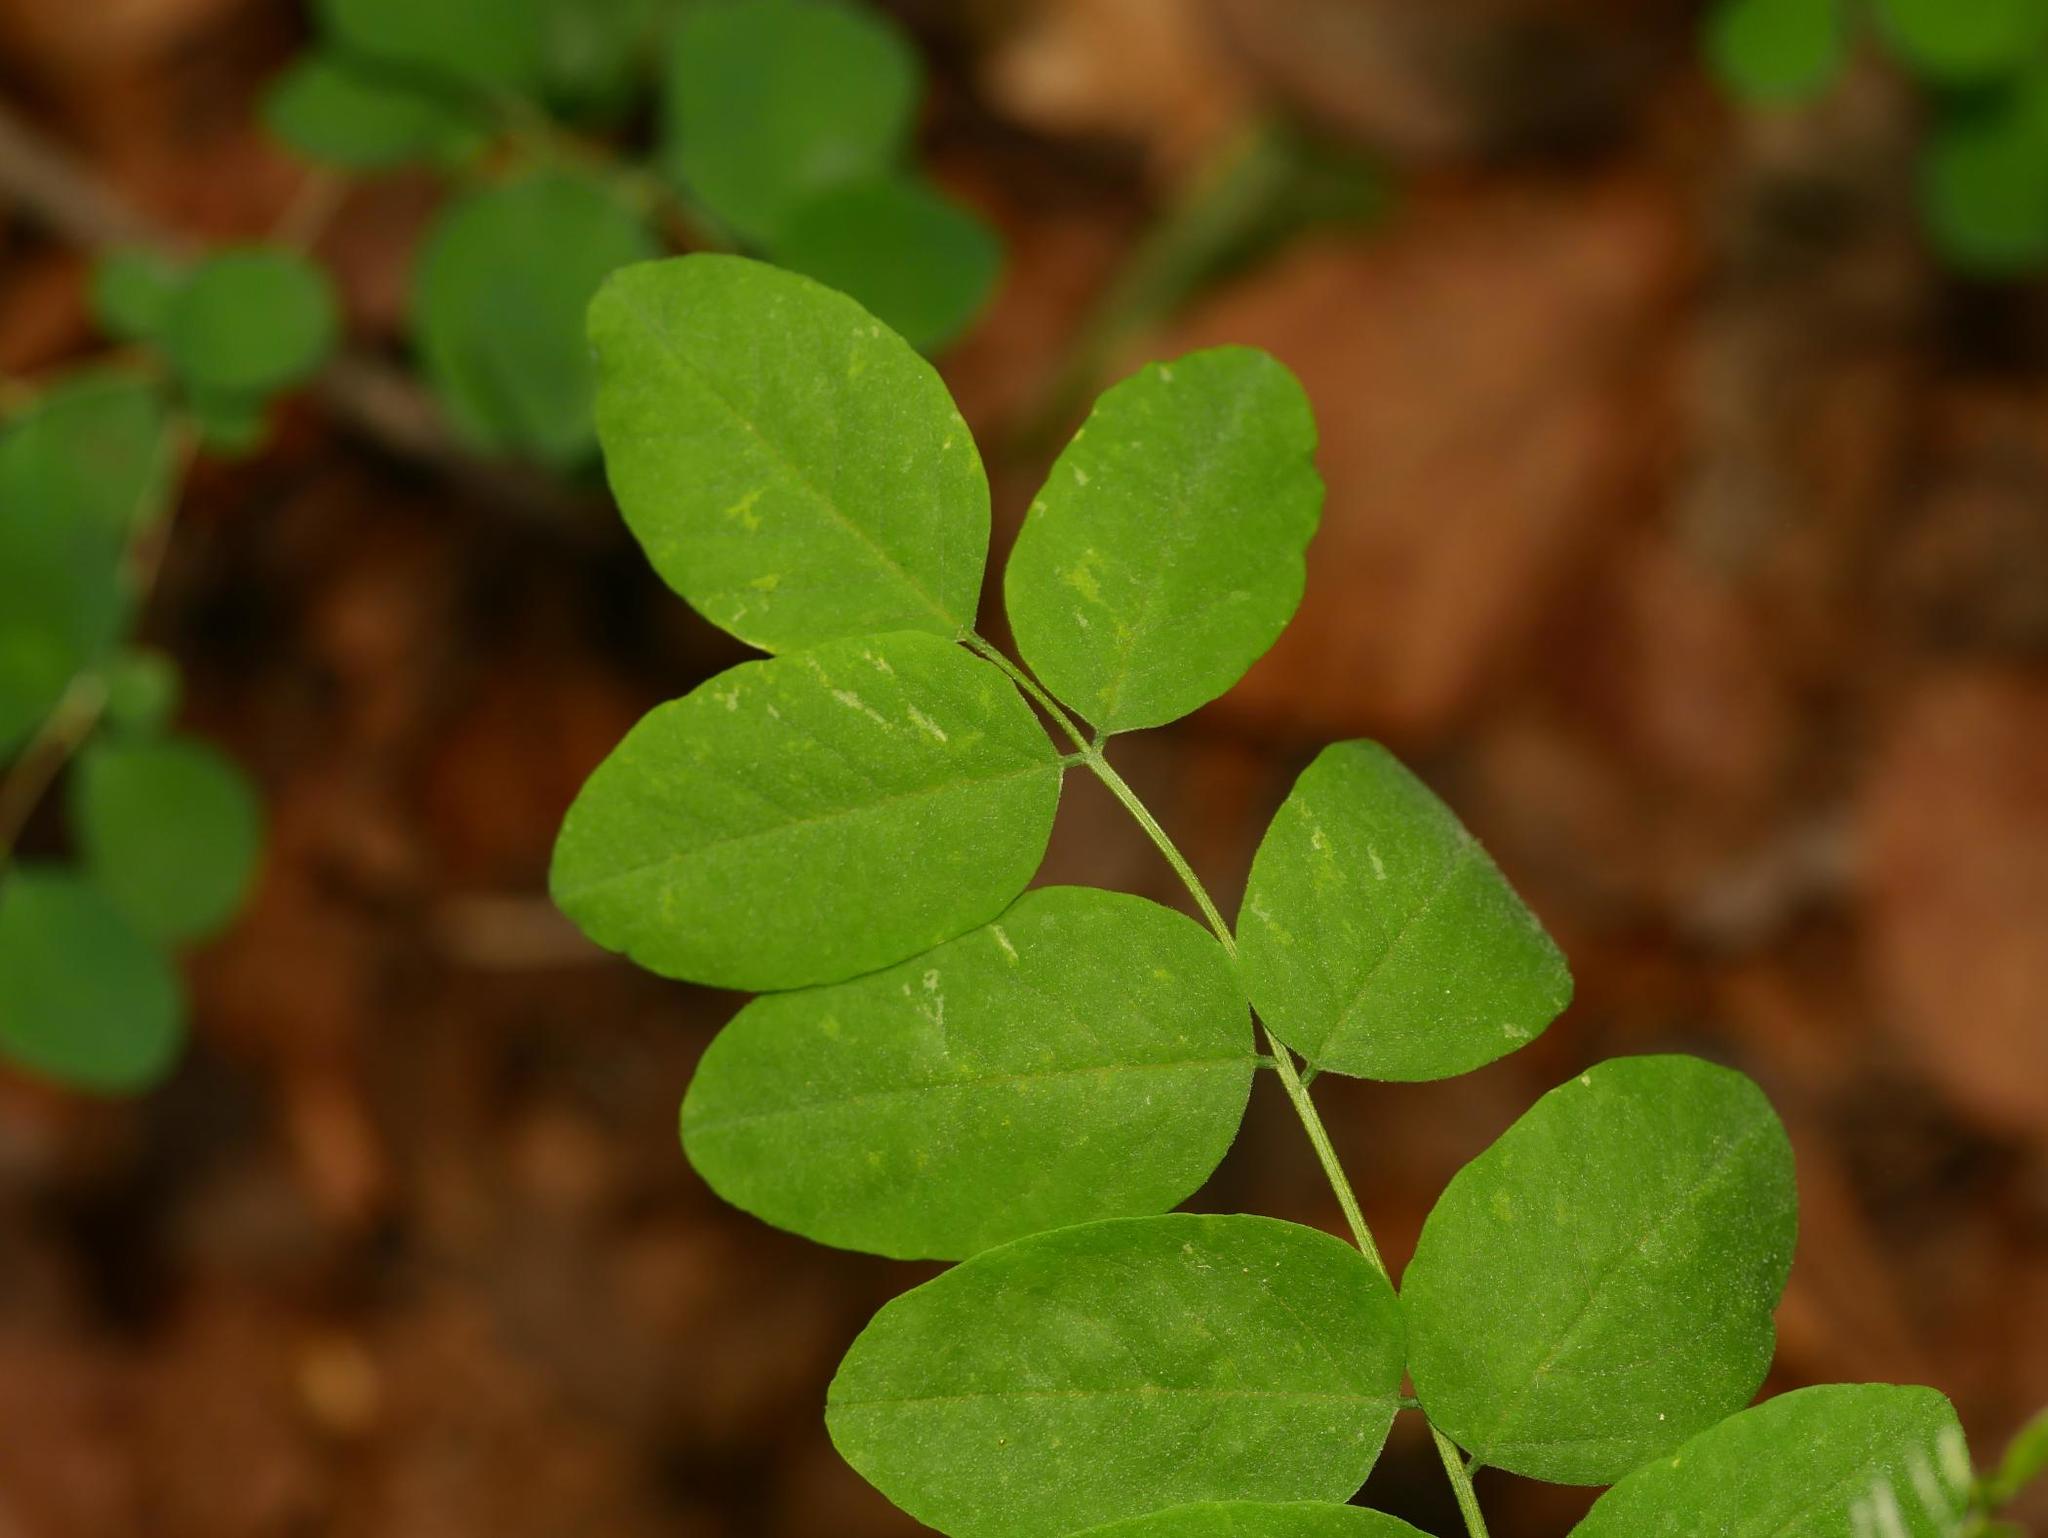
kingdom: Plantae
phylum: Tracheophyta
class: Magnoliopsida
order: Fabales
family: Fabaceae
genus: Robinia
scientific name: Robinia pseudoacacia
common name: Black locust
